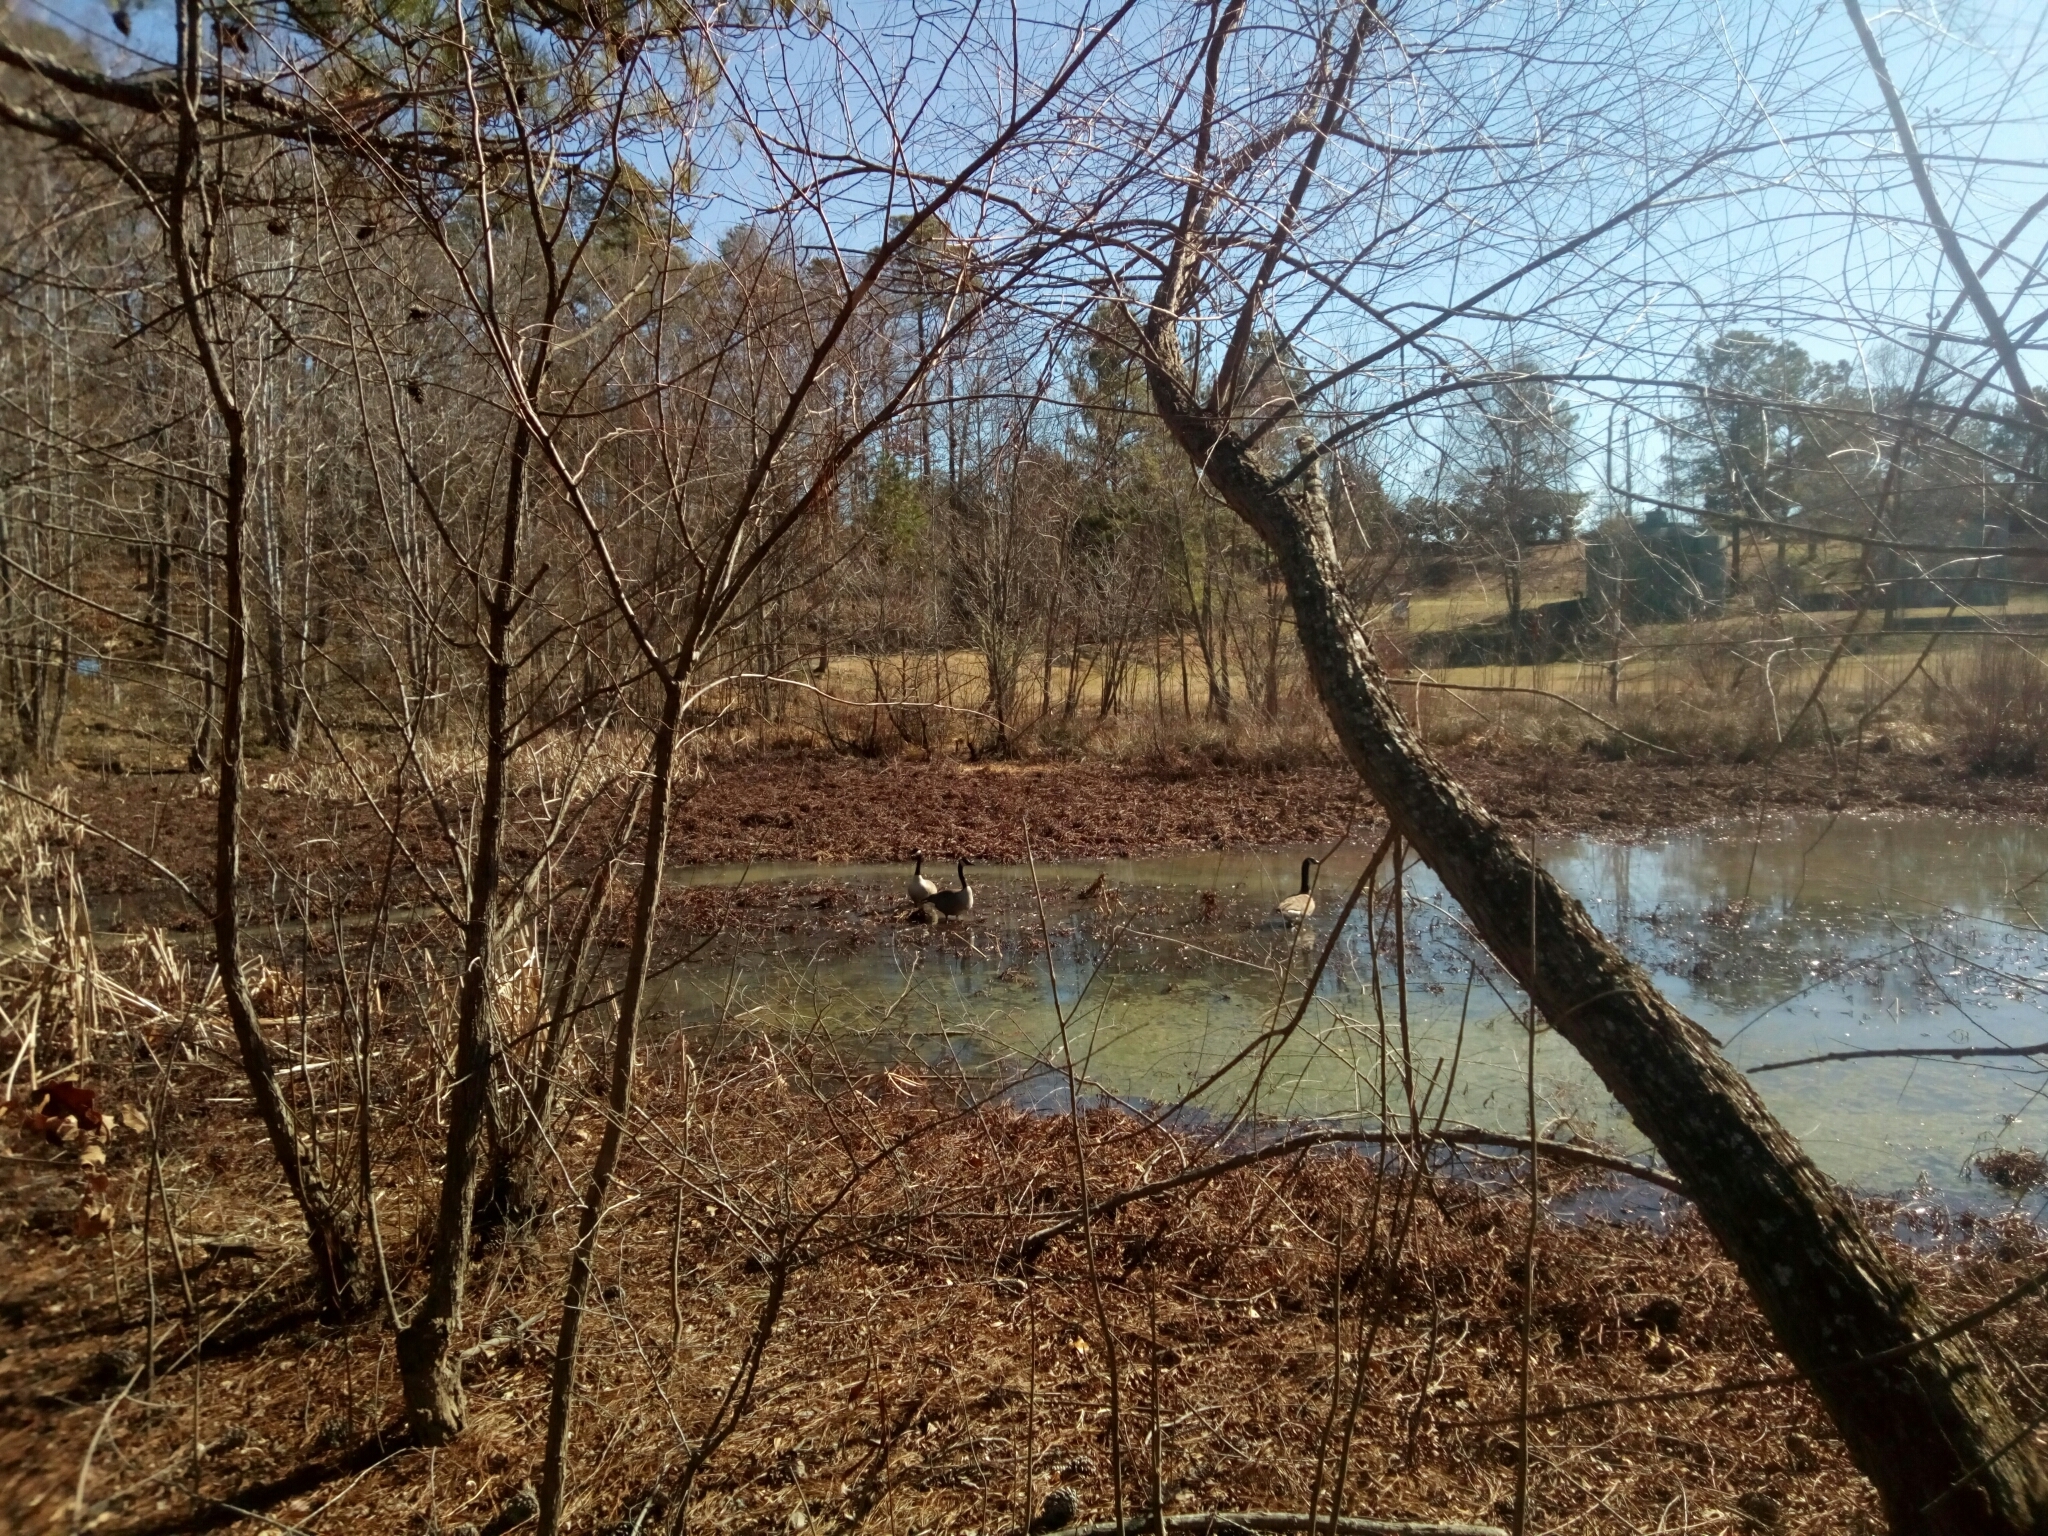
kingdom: Animalia
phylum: Chordata
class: Aves
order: Anseriformes
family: Anatidae
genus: Branta
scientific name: Branta canadensis
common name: Canada goose
